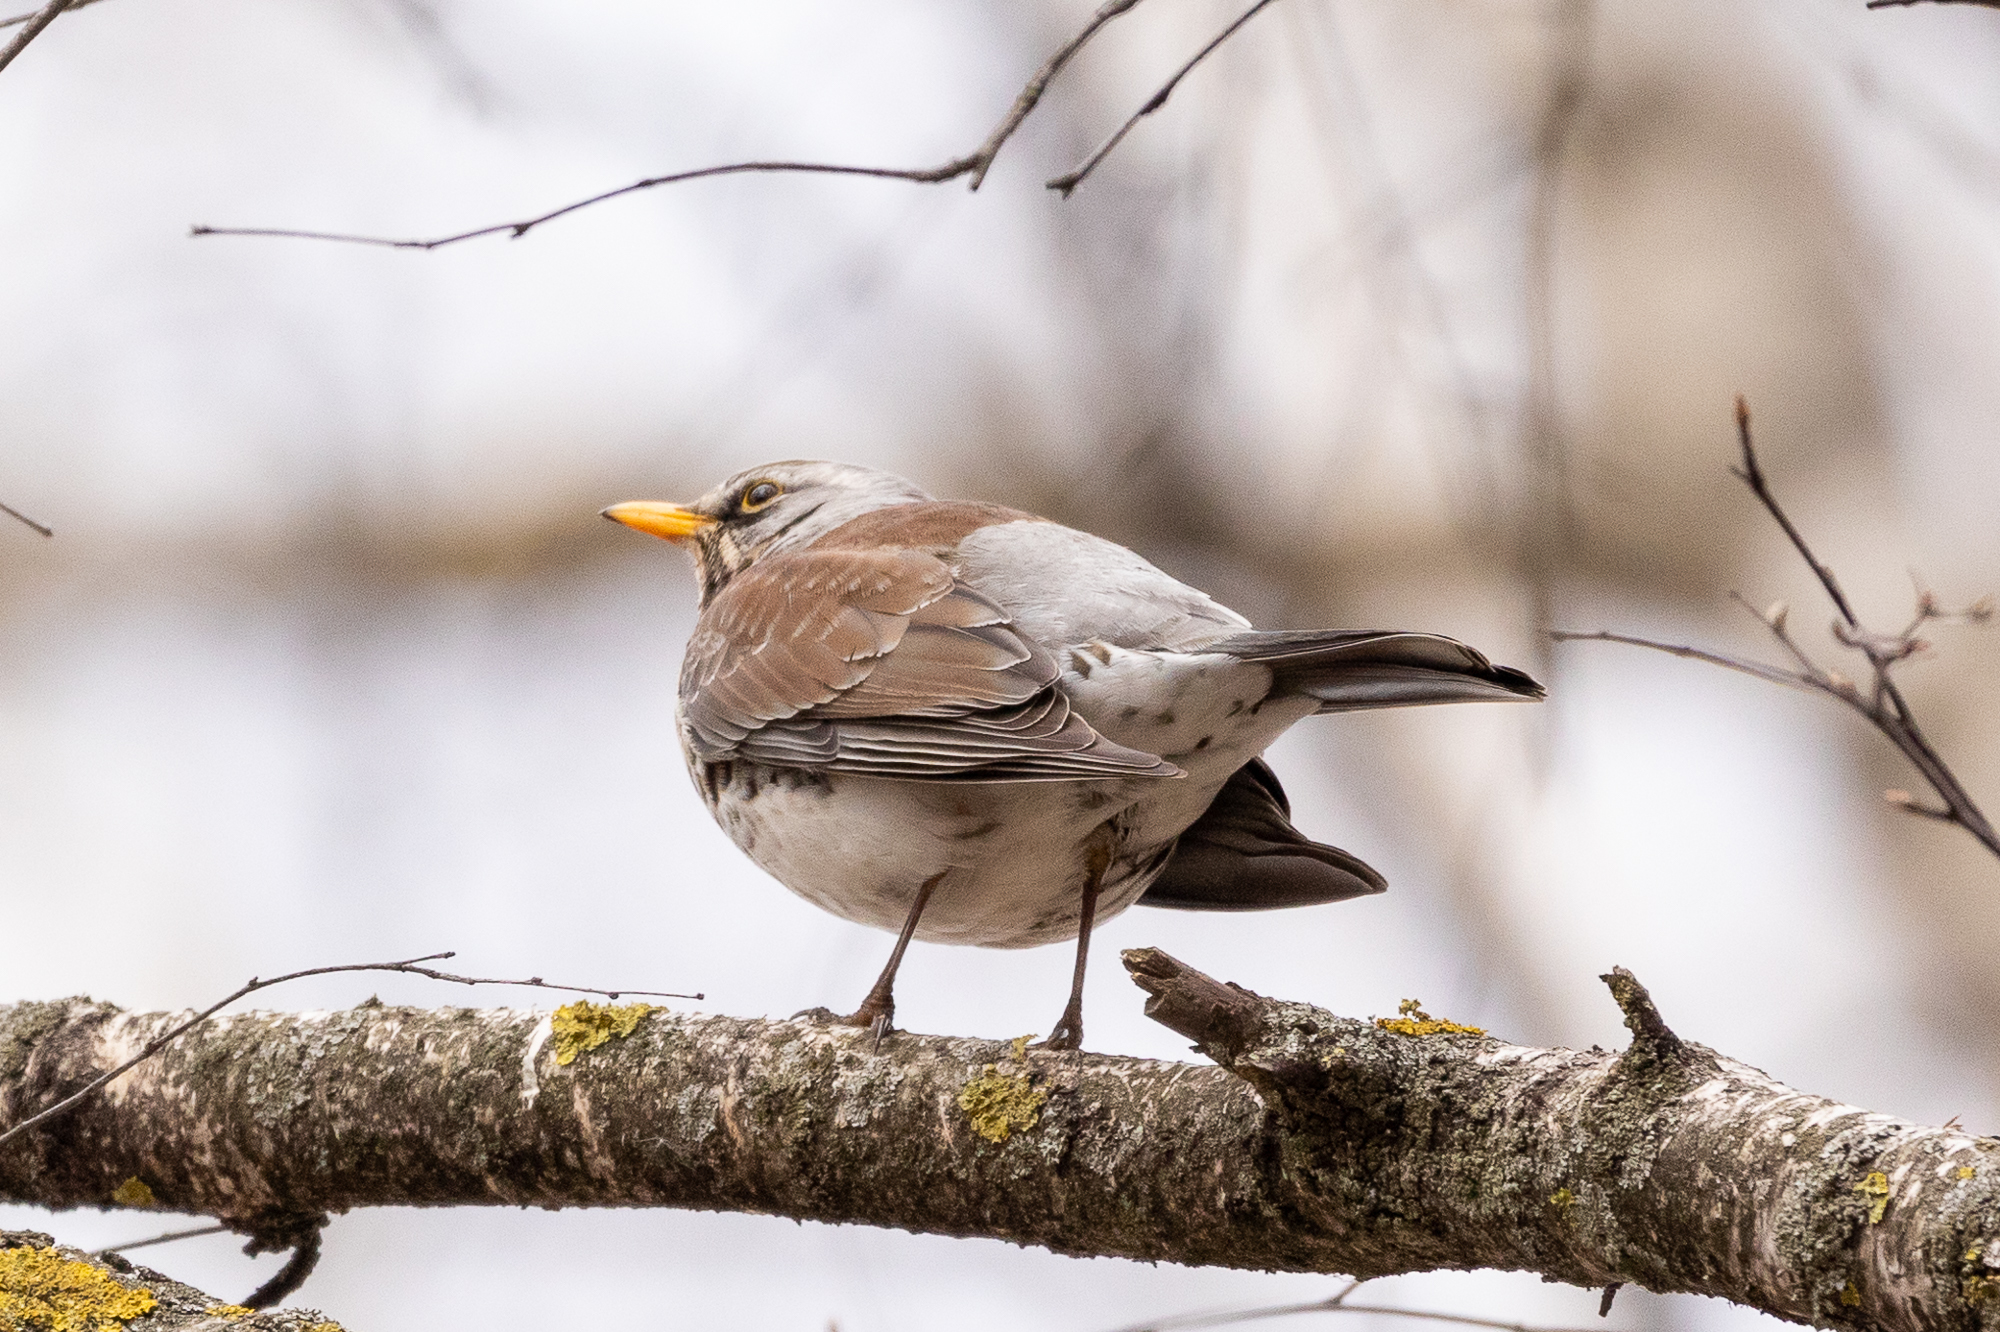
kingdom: Animalia
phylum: Chordata
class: Aves
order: Passeriformes
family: Turdidae
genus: Turdus
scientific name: Turdus pilaris
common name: Fieldfare
